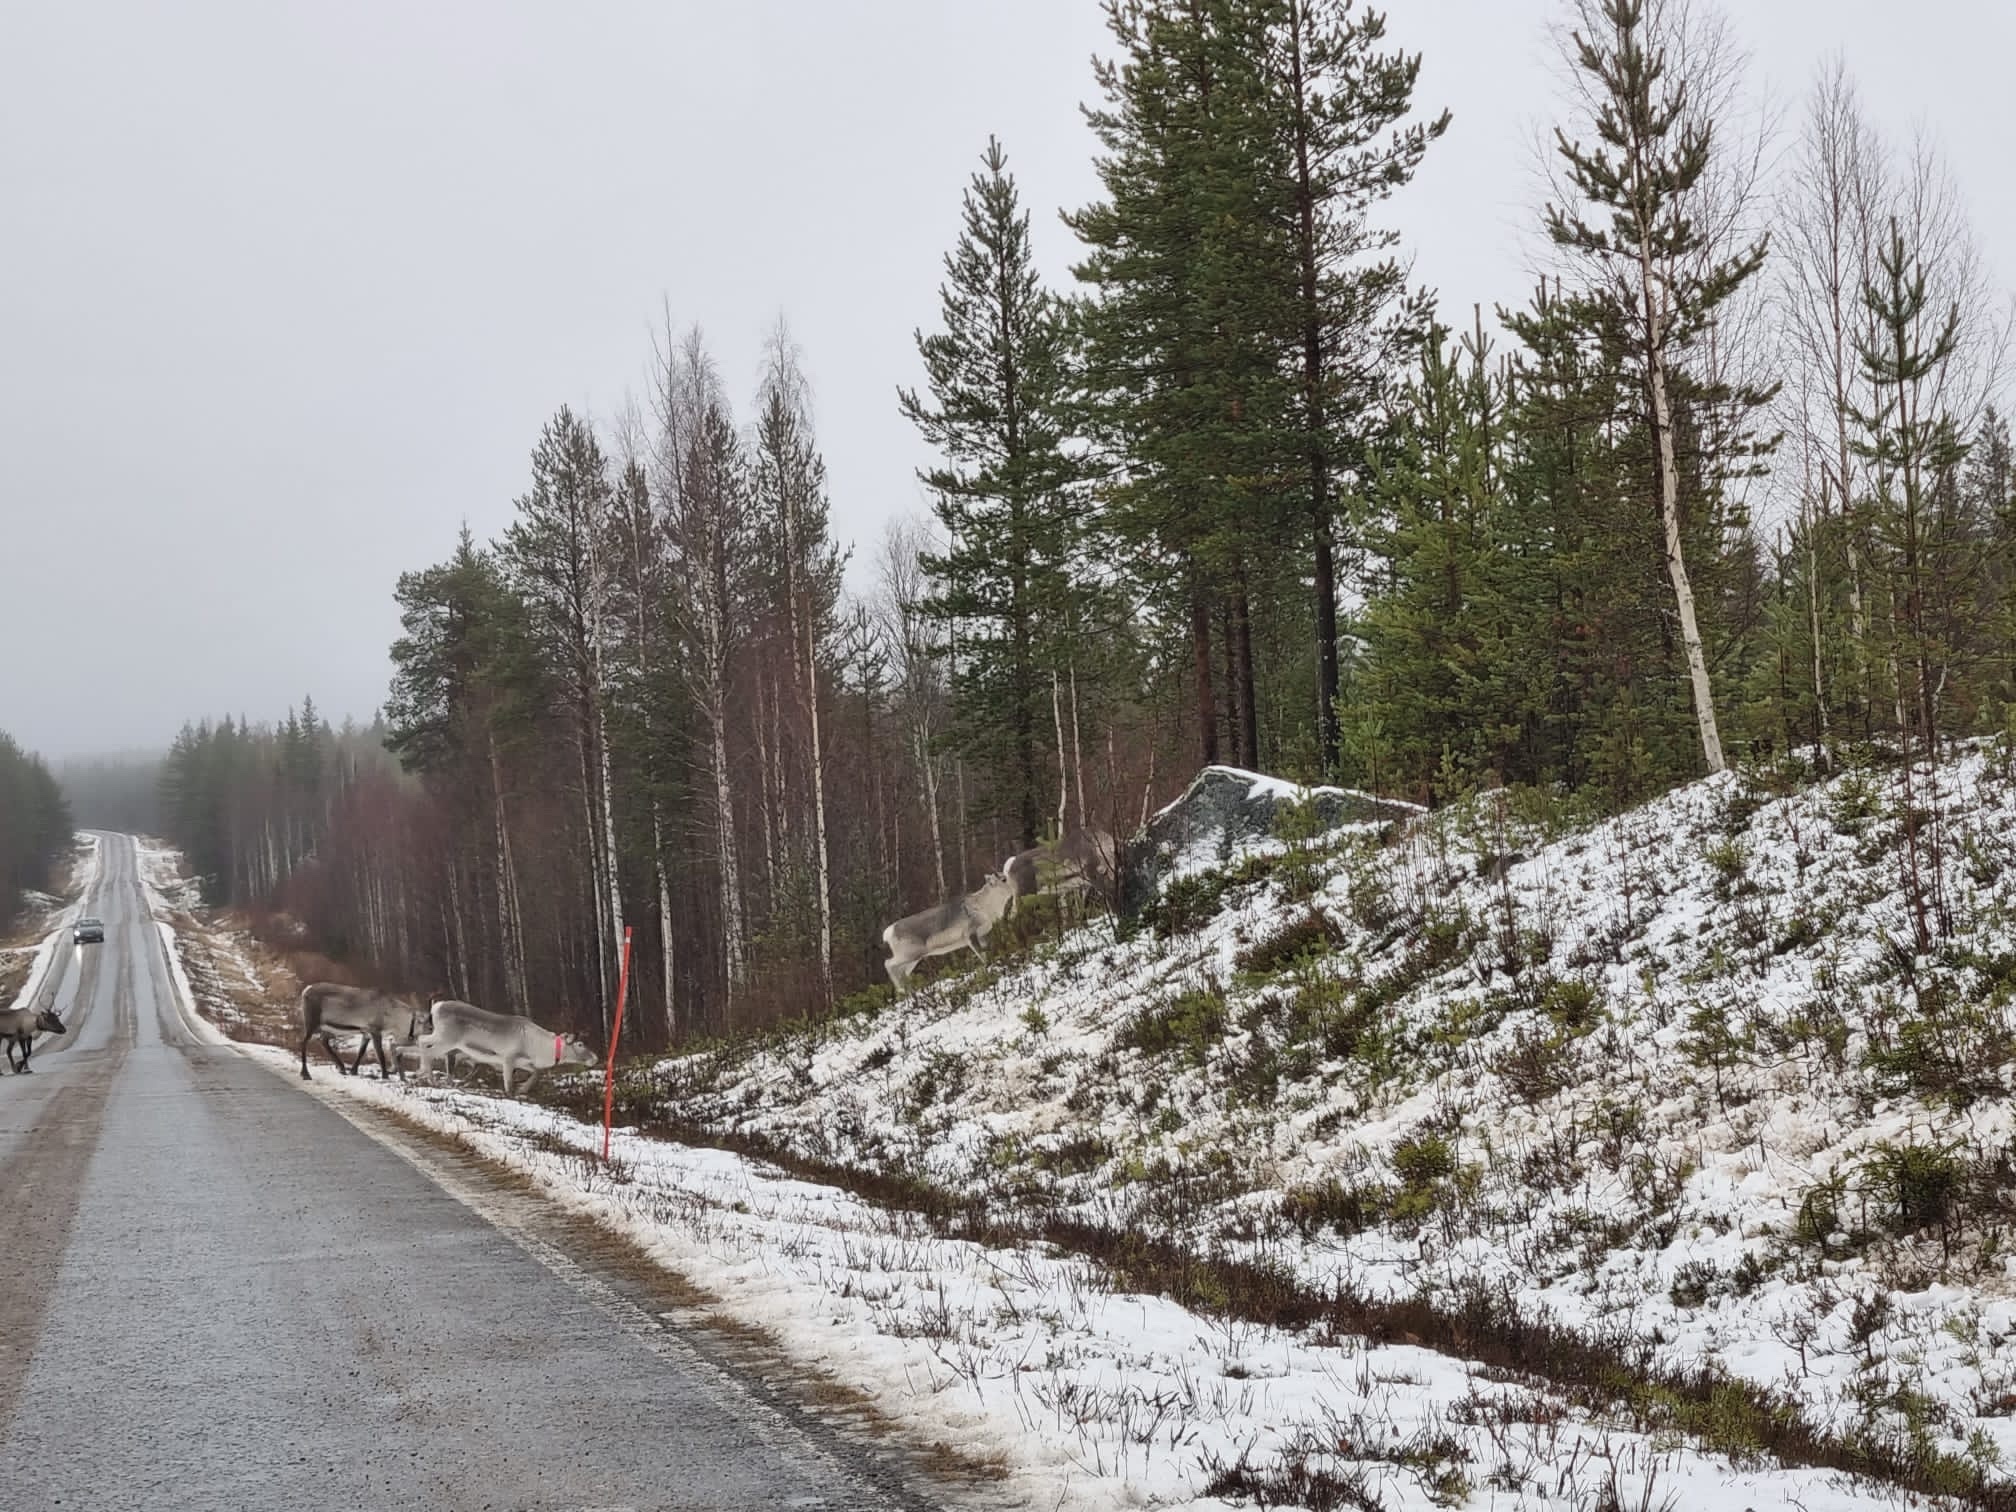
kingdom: Animalia
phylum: Chordata
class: Mammalia
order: Artiodactyla
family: Cervidae
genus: Rangifer
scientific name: Rangifer tarandus
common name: Reindeer
